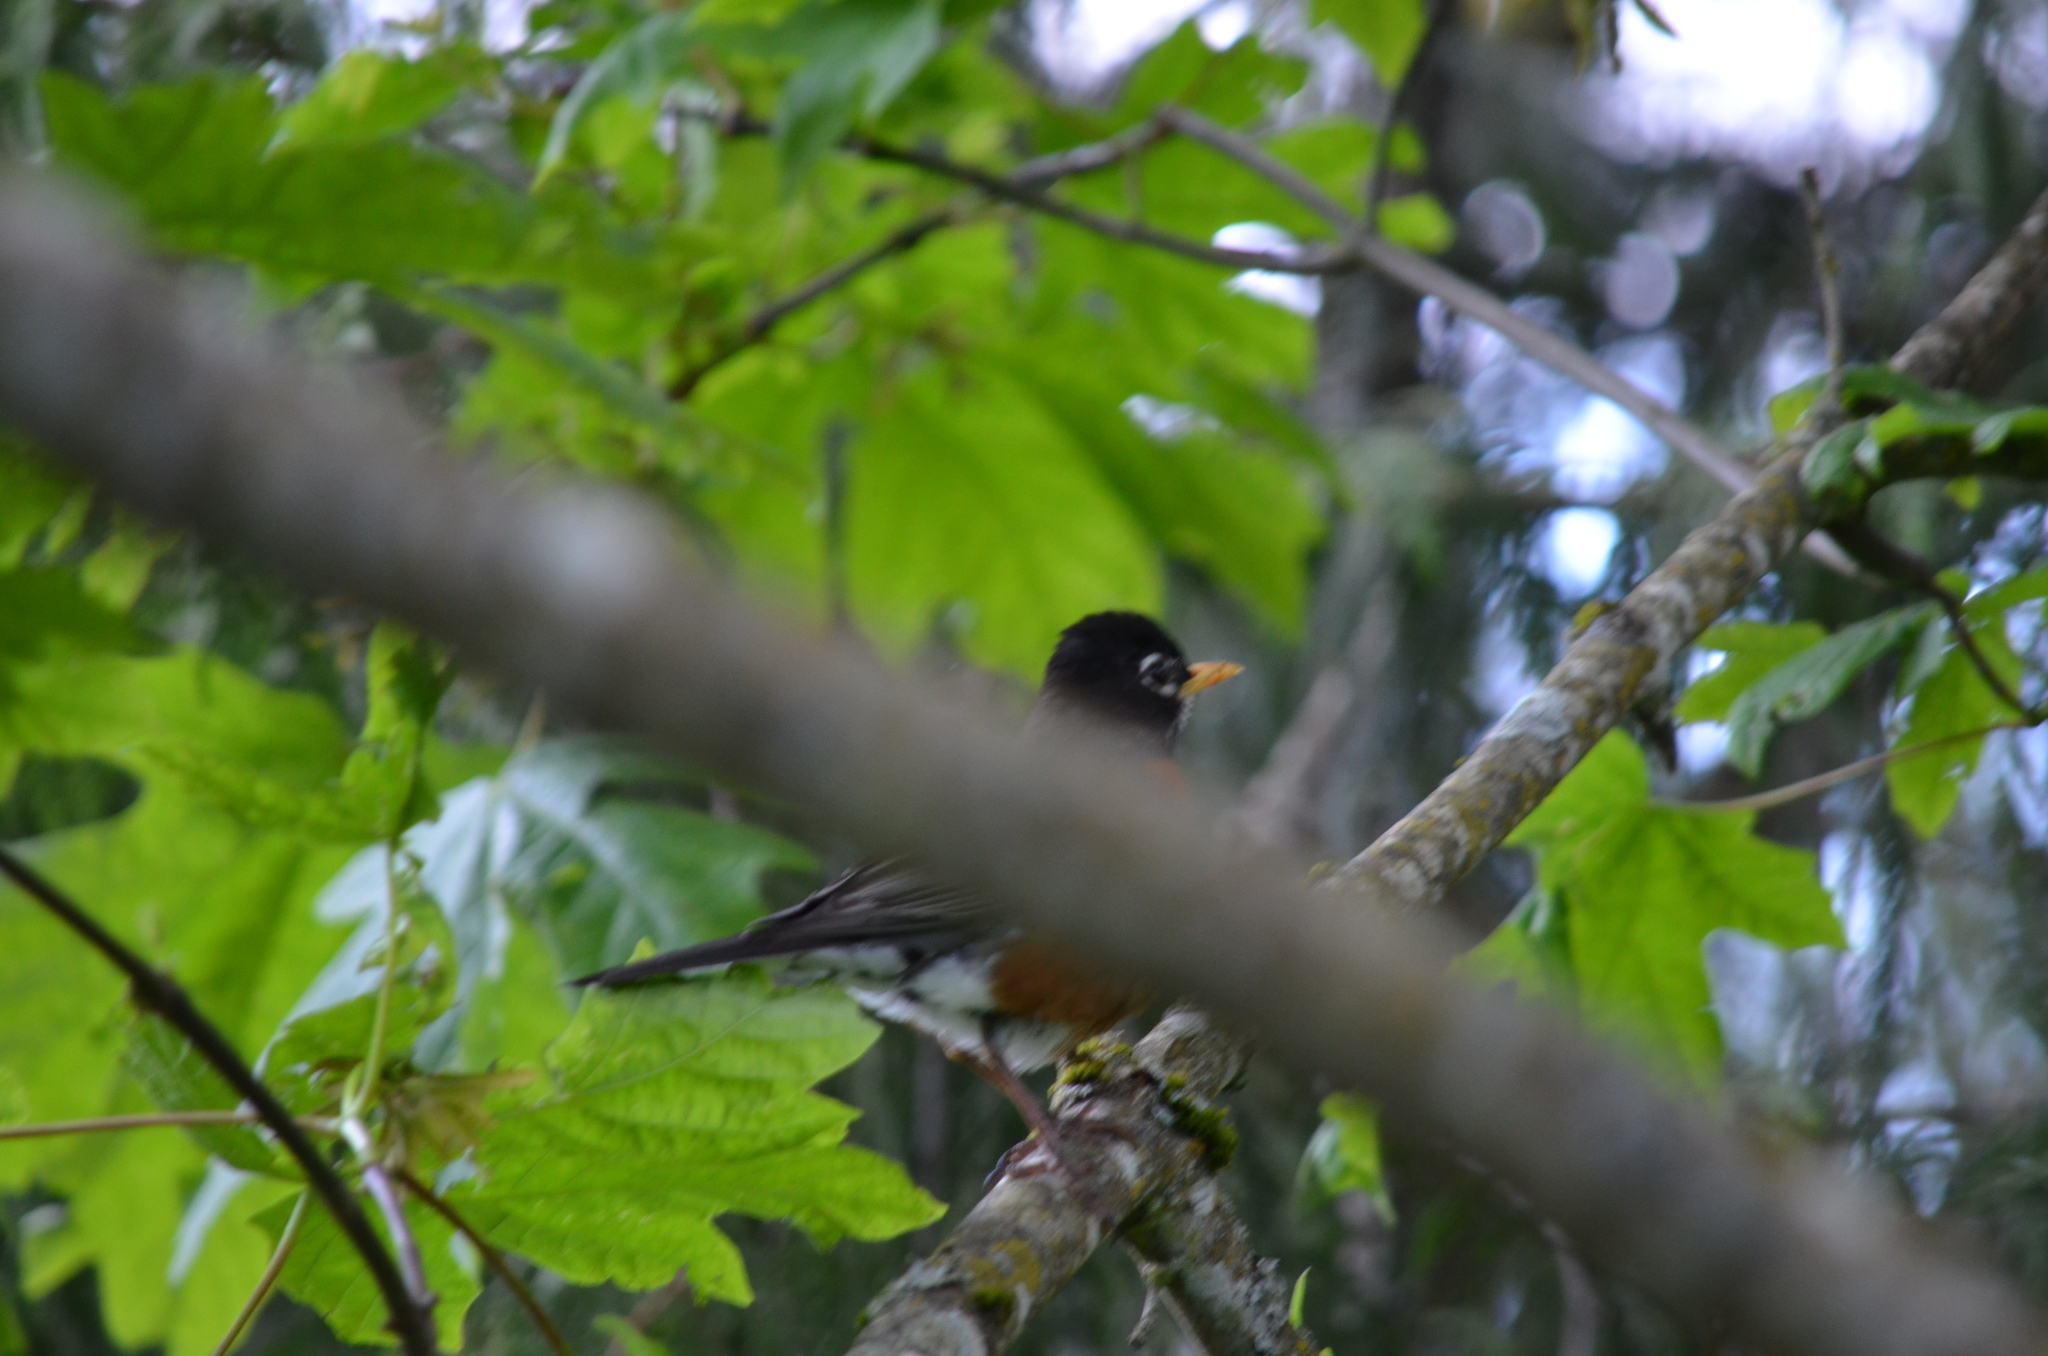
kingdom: Animalia
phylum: Chordata
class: Aves
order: Passeriformes
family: Turdidae
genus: Turdus
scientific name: Turdus migratorius
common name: American robin
